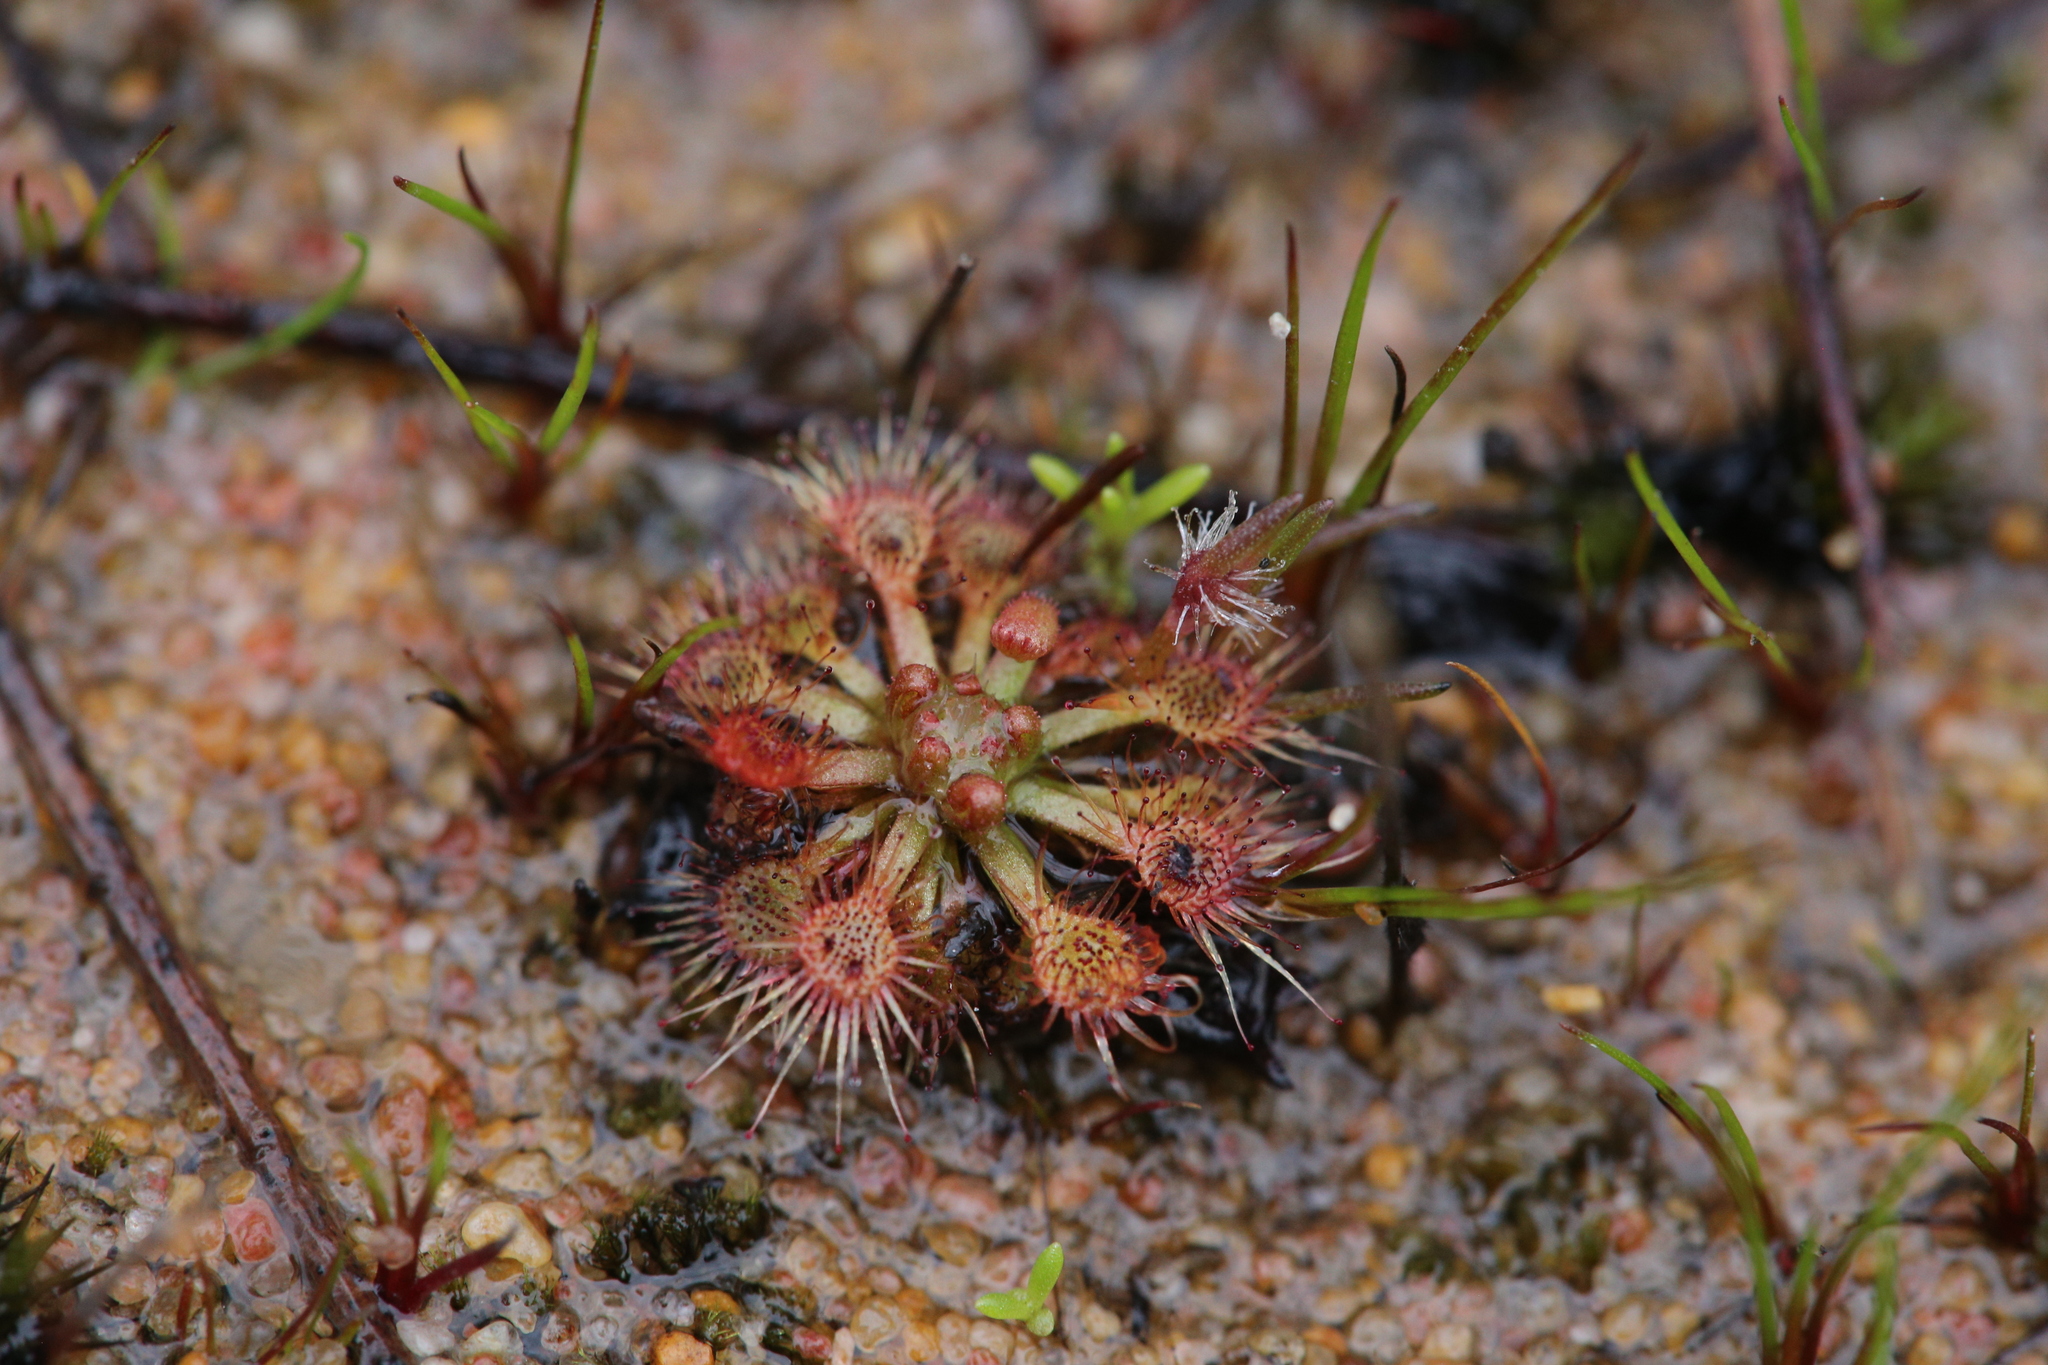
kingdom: Plantae
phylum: Tracheophyta
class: Magnoliopsida
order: Caryophyllales
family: Droseraceae
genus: Drosera
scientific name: Drosera nitidula
